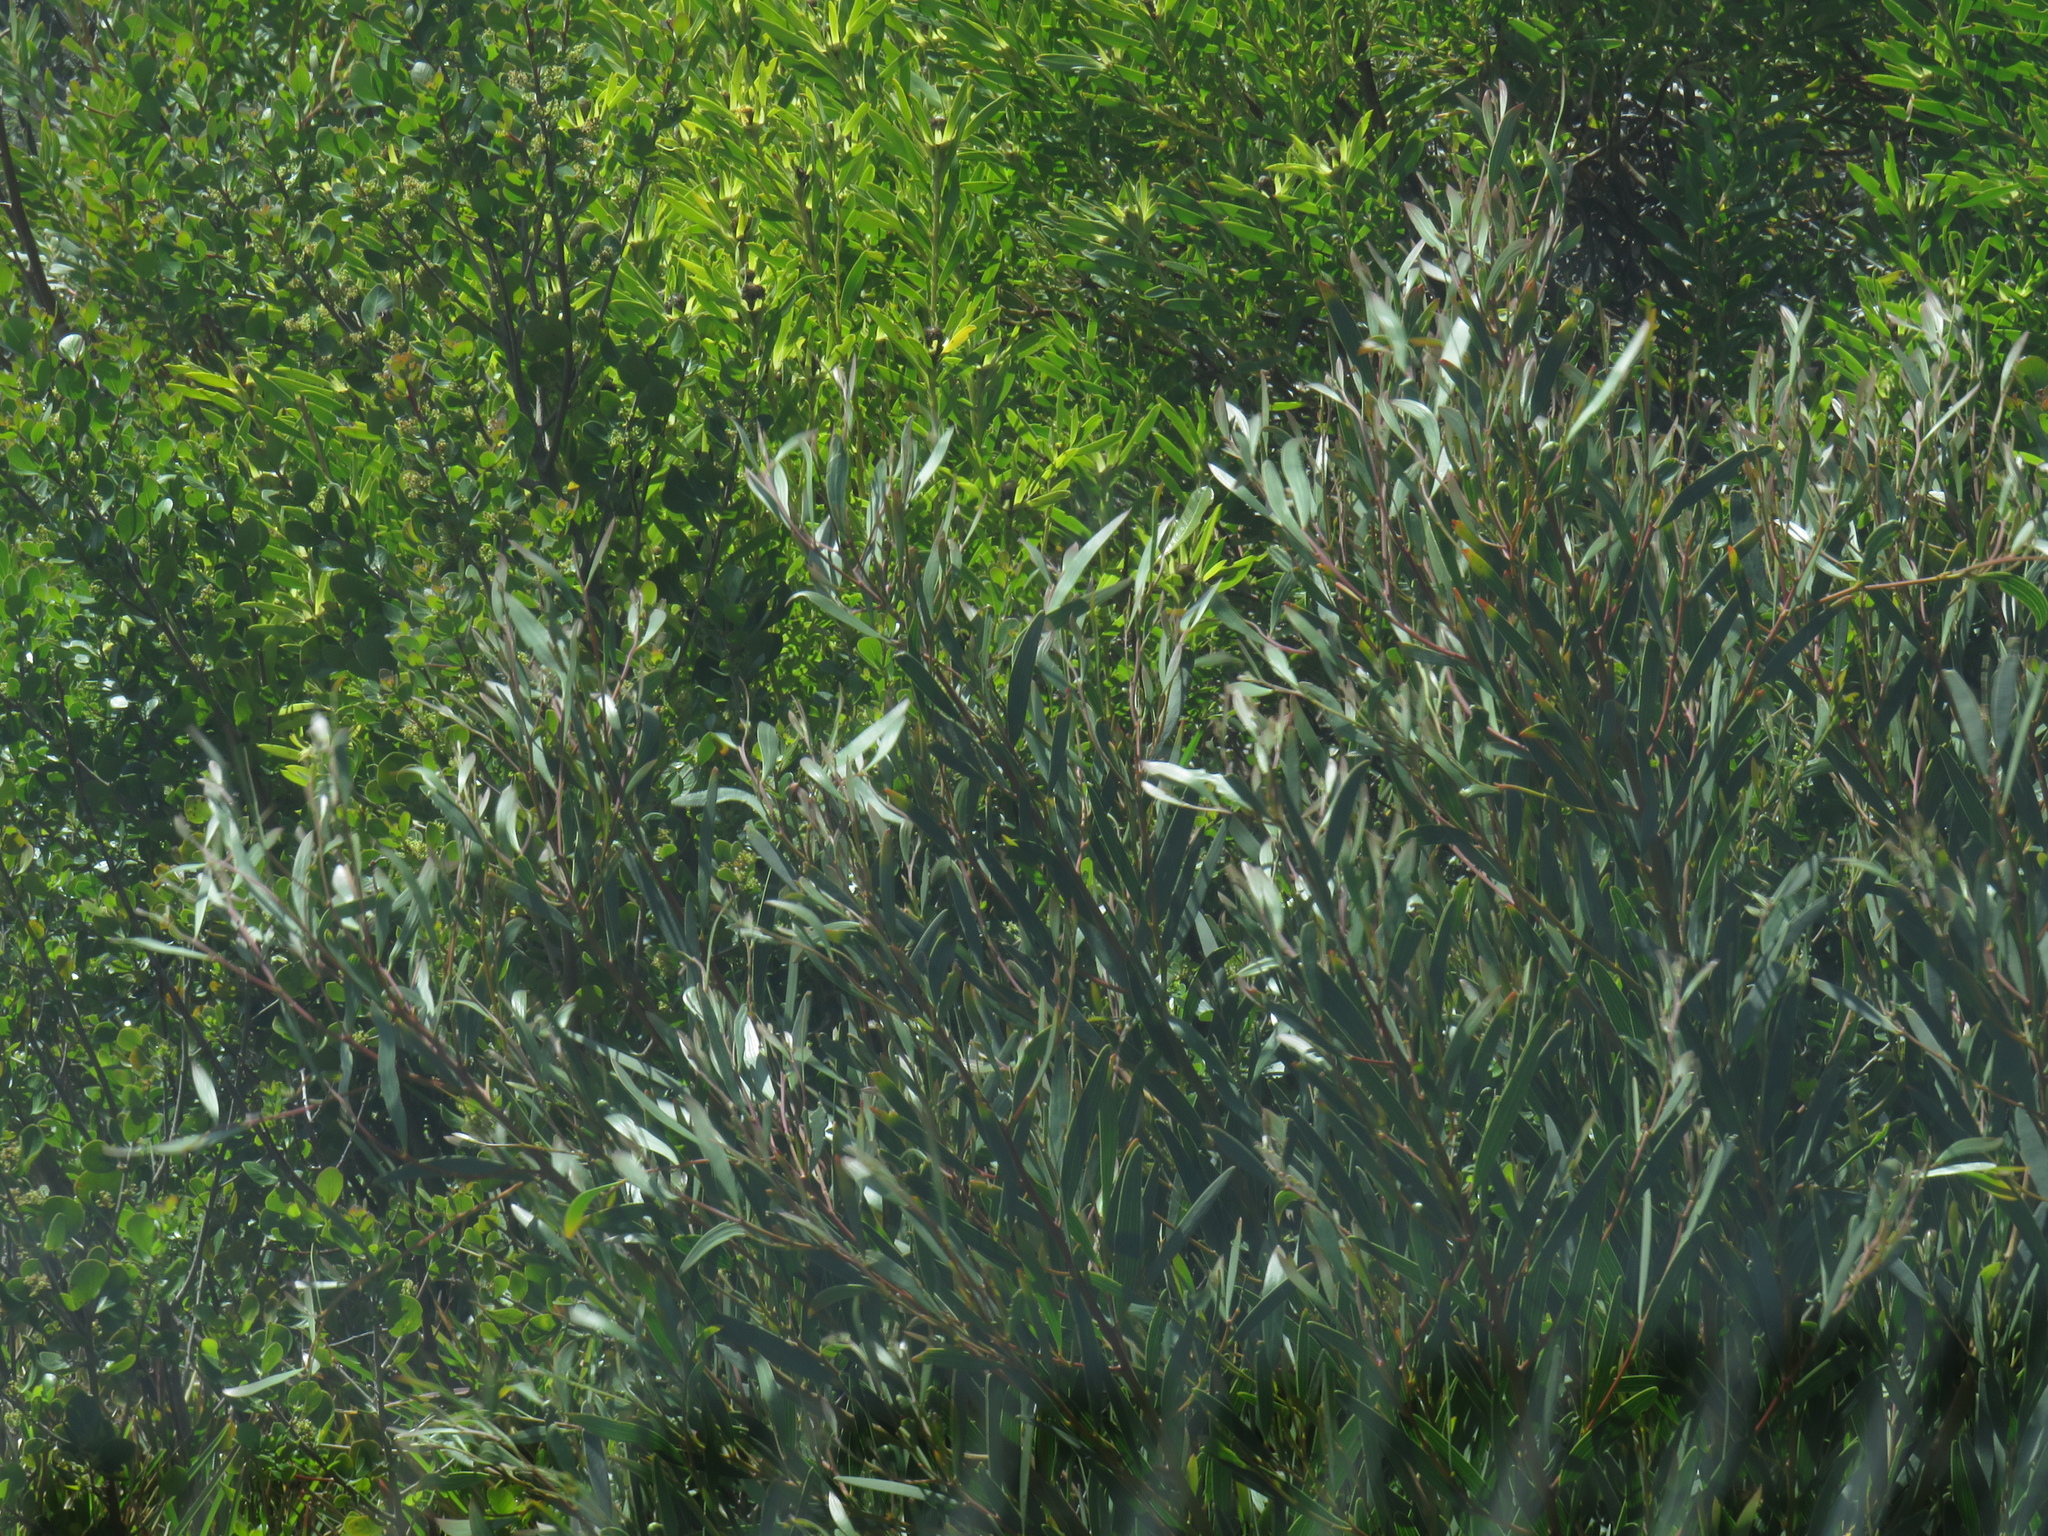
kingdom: Plantae
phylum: Tracheophyta
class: Magnoliopsida
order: Fabales
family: Fabaceae
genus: Acacia
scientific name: Acacia cyclops
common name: Coastal wattle
